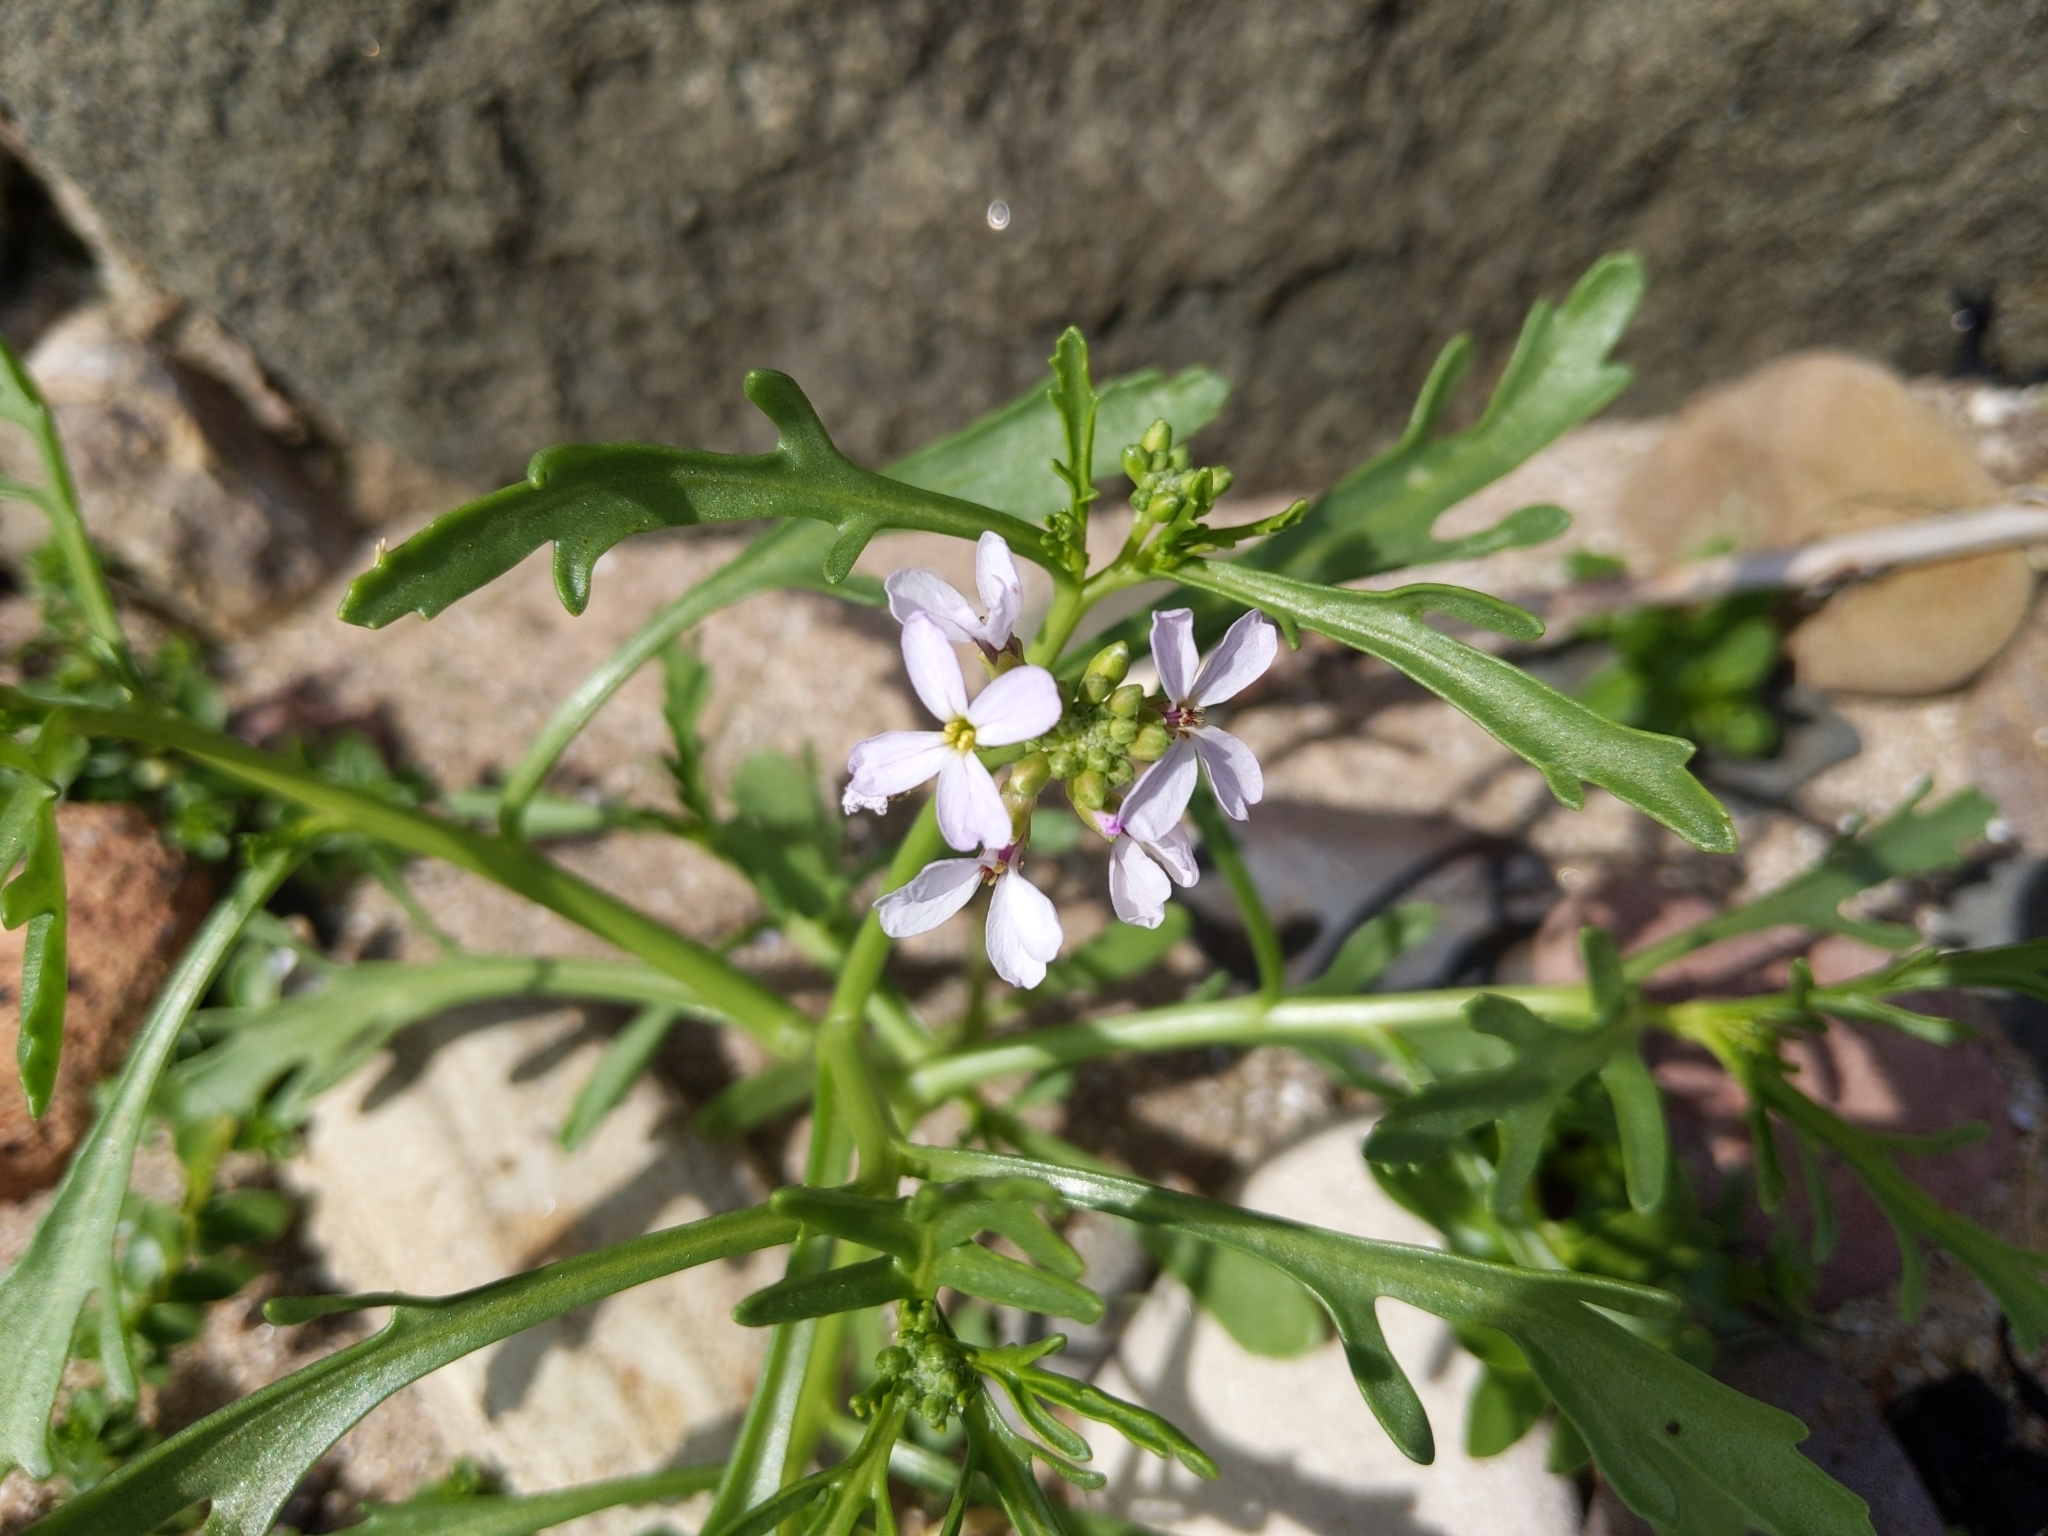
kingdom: Plantae
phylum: Tracheophyta
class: Magnoliopsida
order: Brassicales
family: Brassicaceae
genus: Cakile
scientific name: Cakile maritima
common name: Sea rocket
